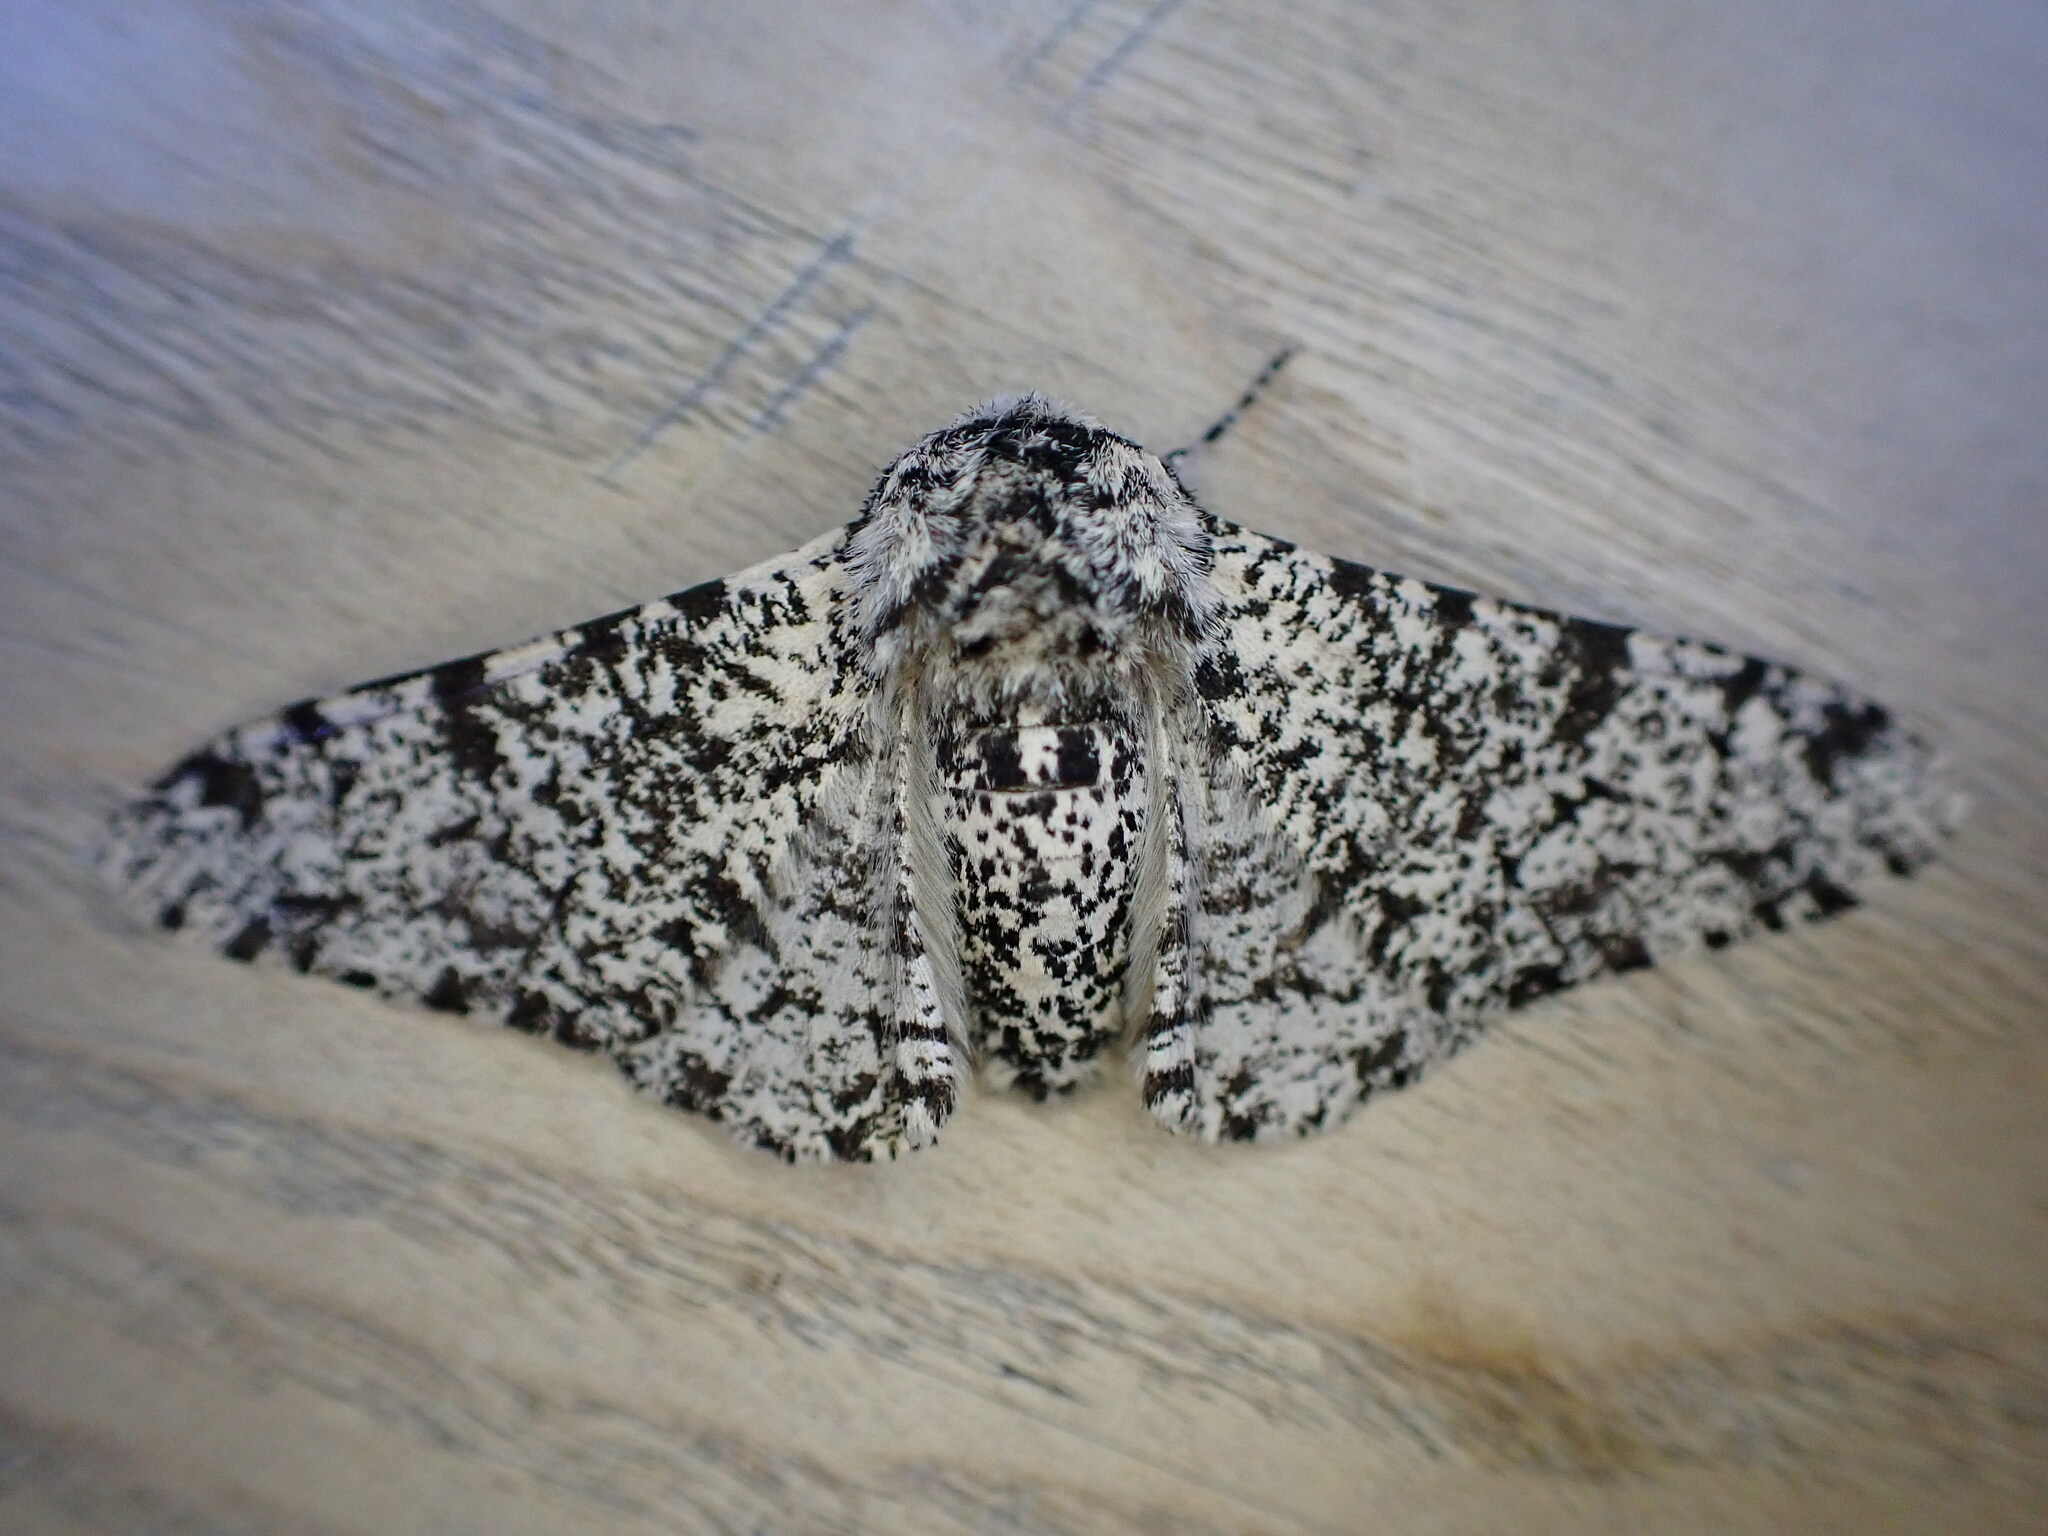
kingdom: Animalia
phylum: Arthropoda
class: Insecta
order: Lepidoptera
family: Geometridae
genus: Biston
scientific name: Biston betularia
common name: Peppered moth
